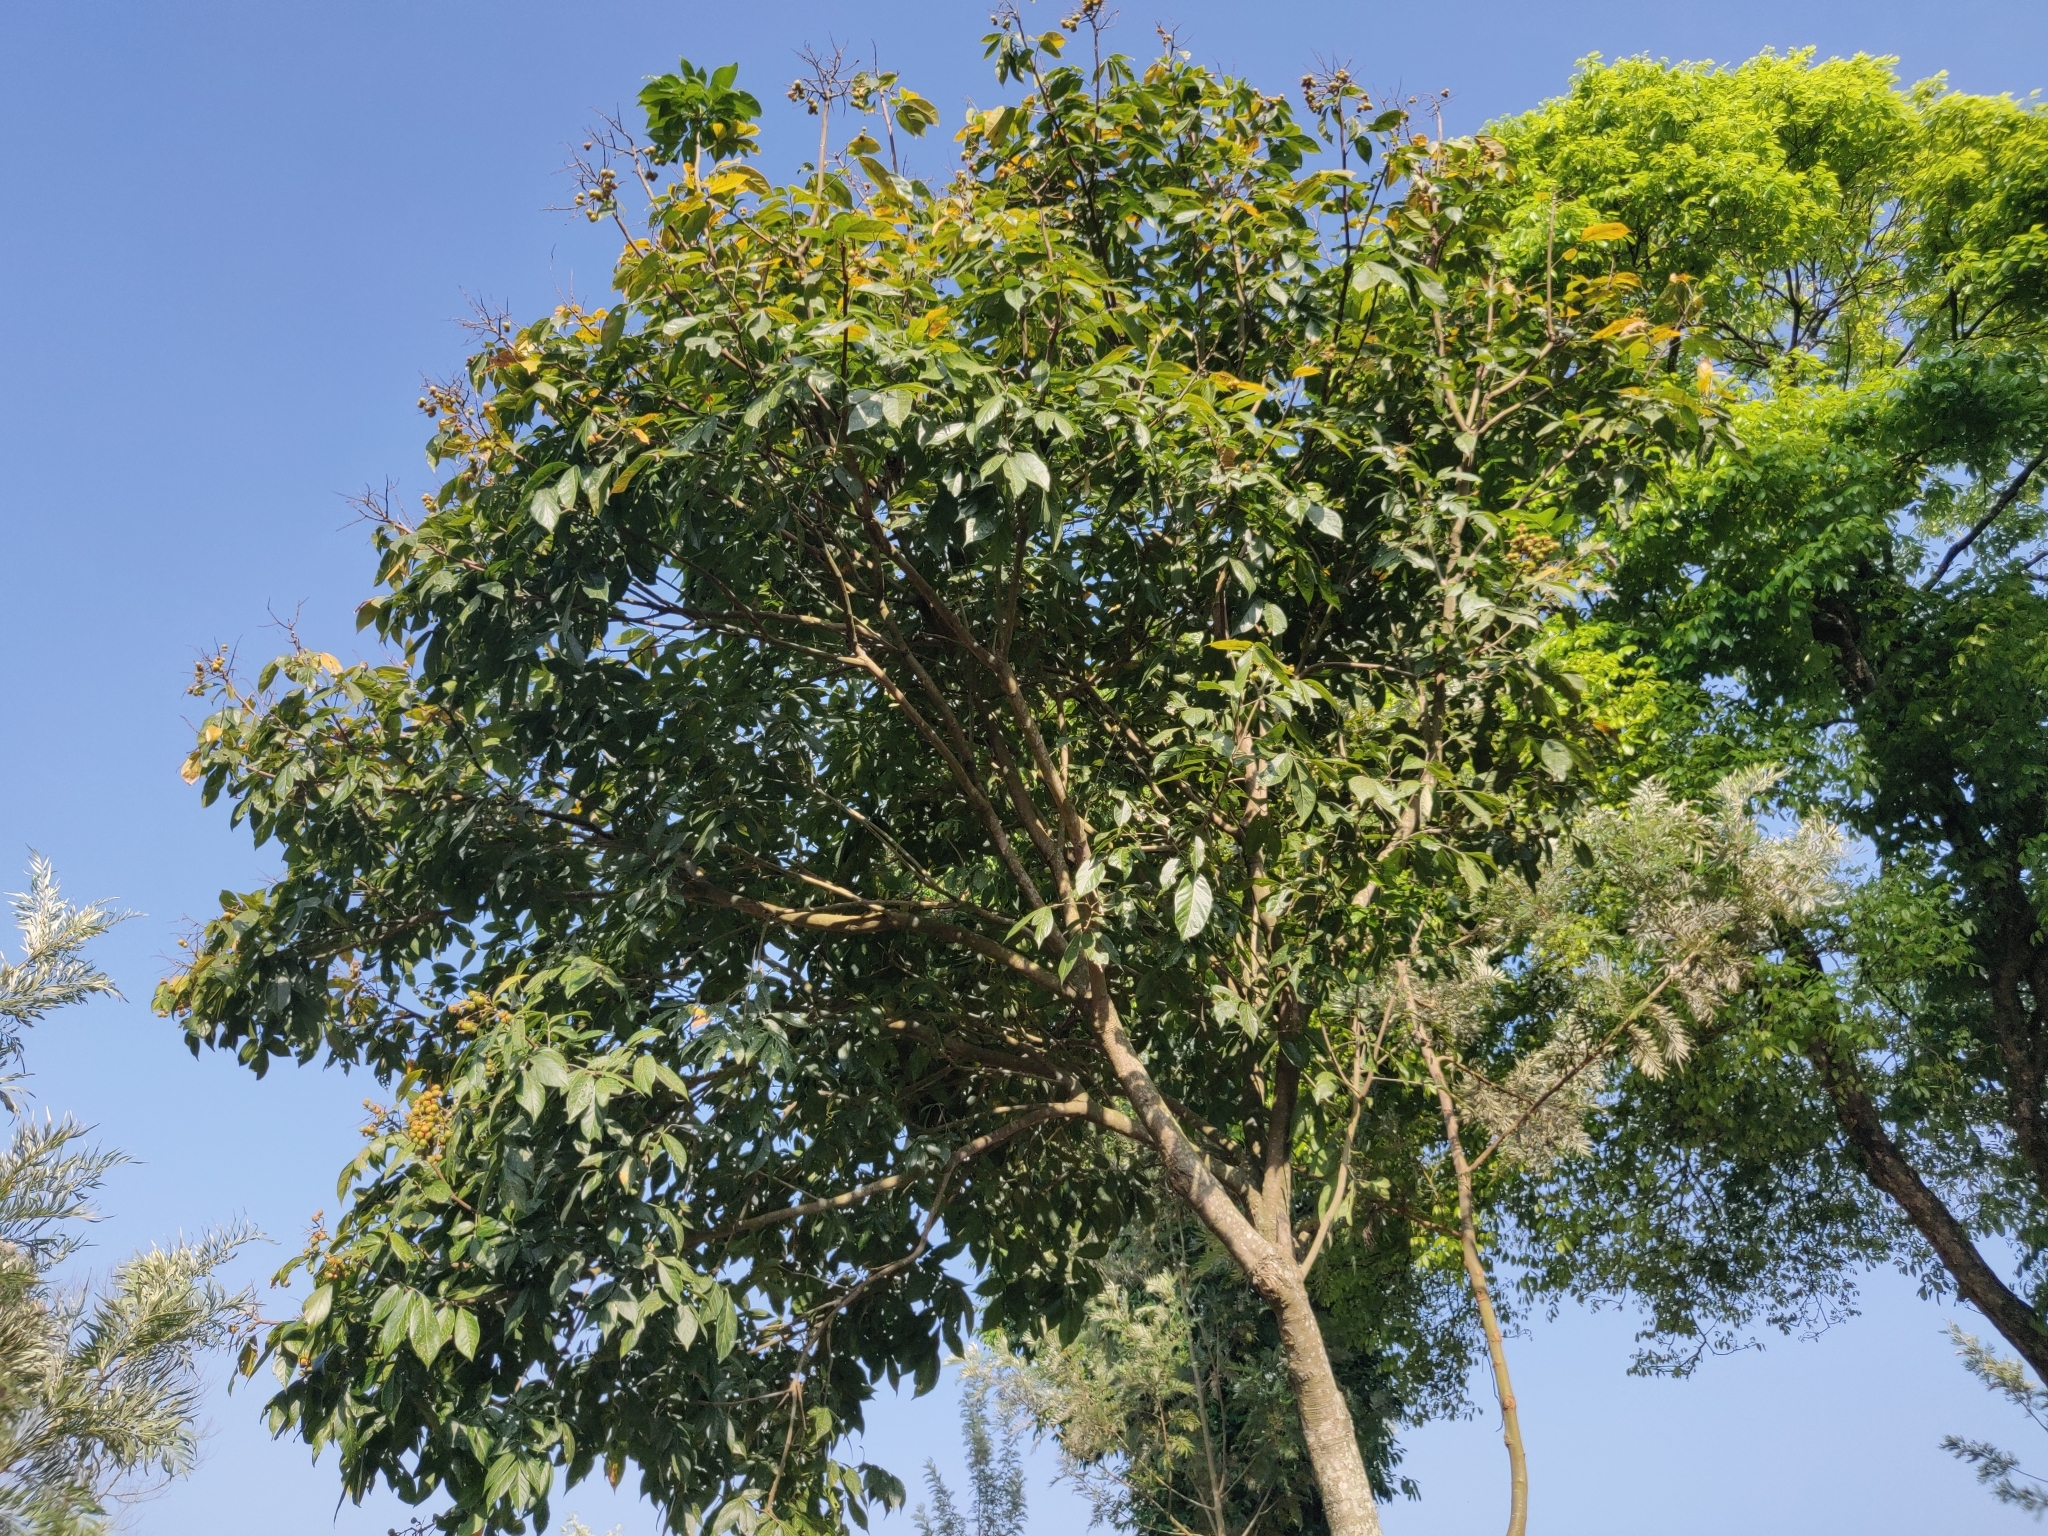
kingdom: Plantae
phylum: Tracheophyta
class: Magnoliopsida
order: Sapindales
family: Sapindaceae
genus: Sapindus
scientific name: Sapindus trifoliatus
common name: Three-leaf soapberry
